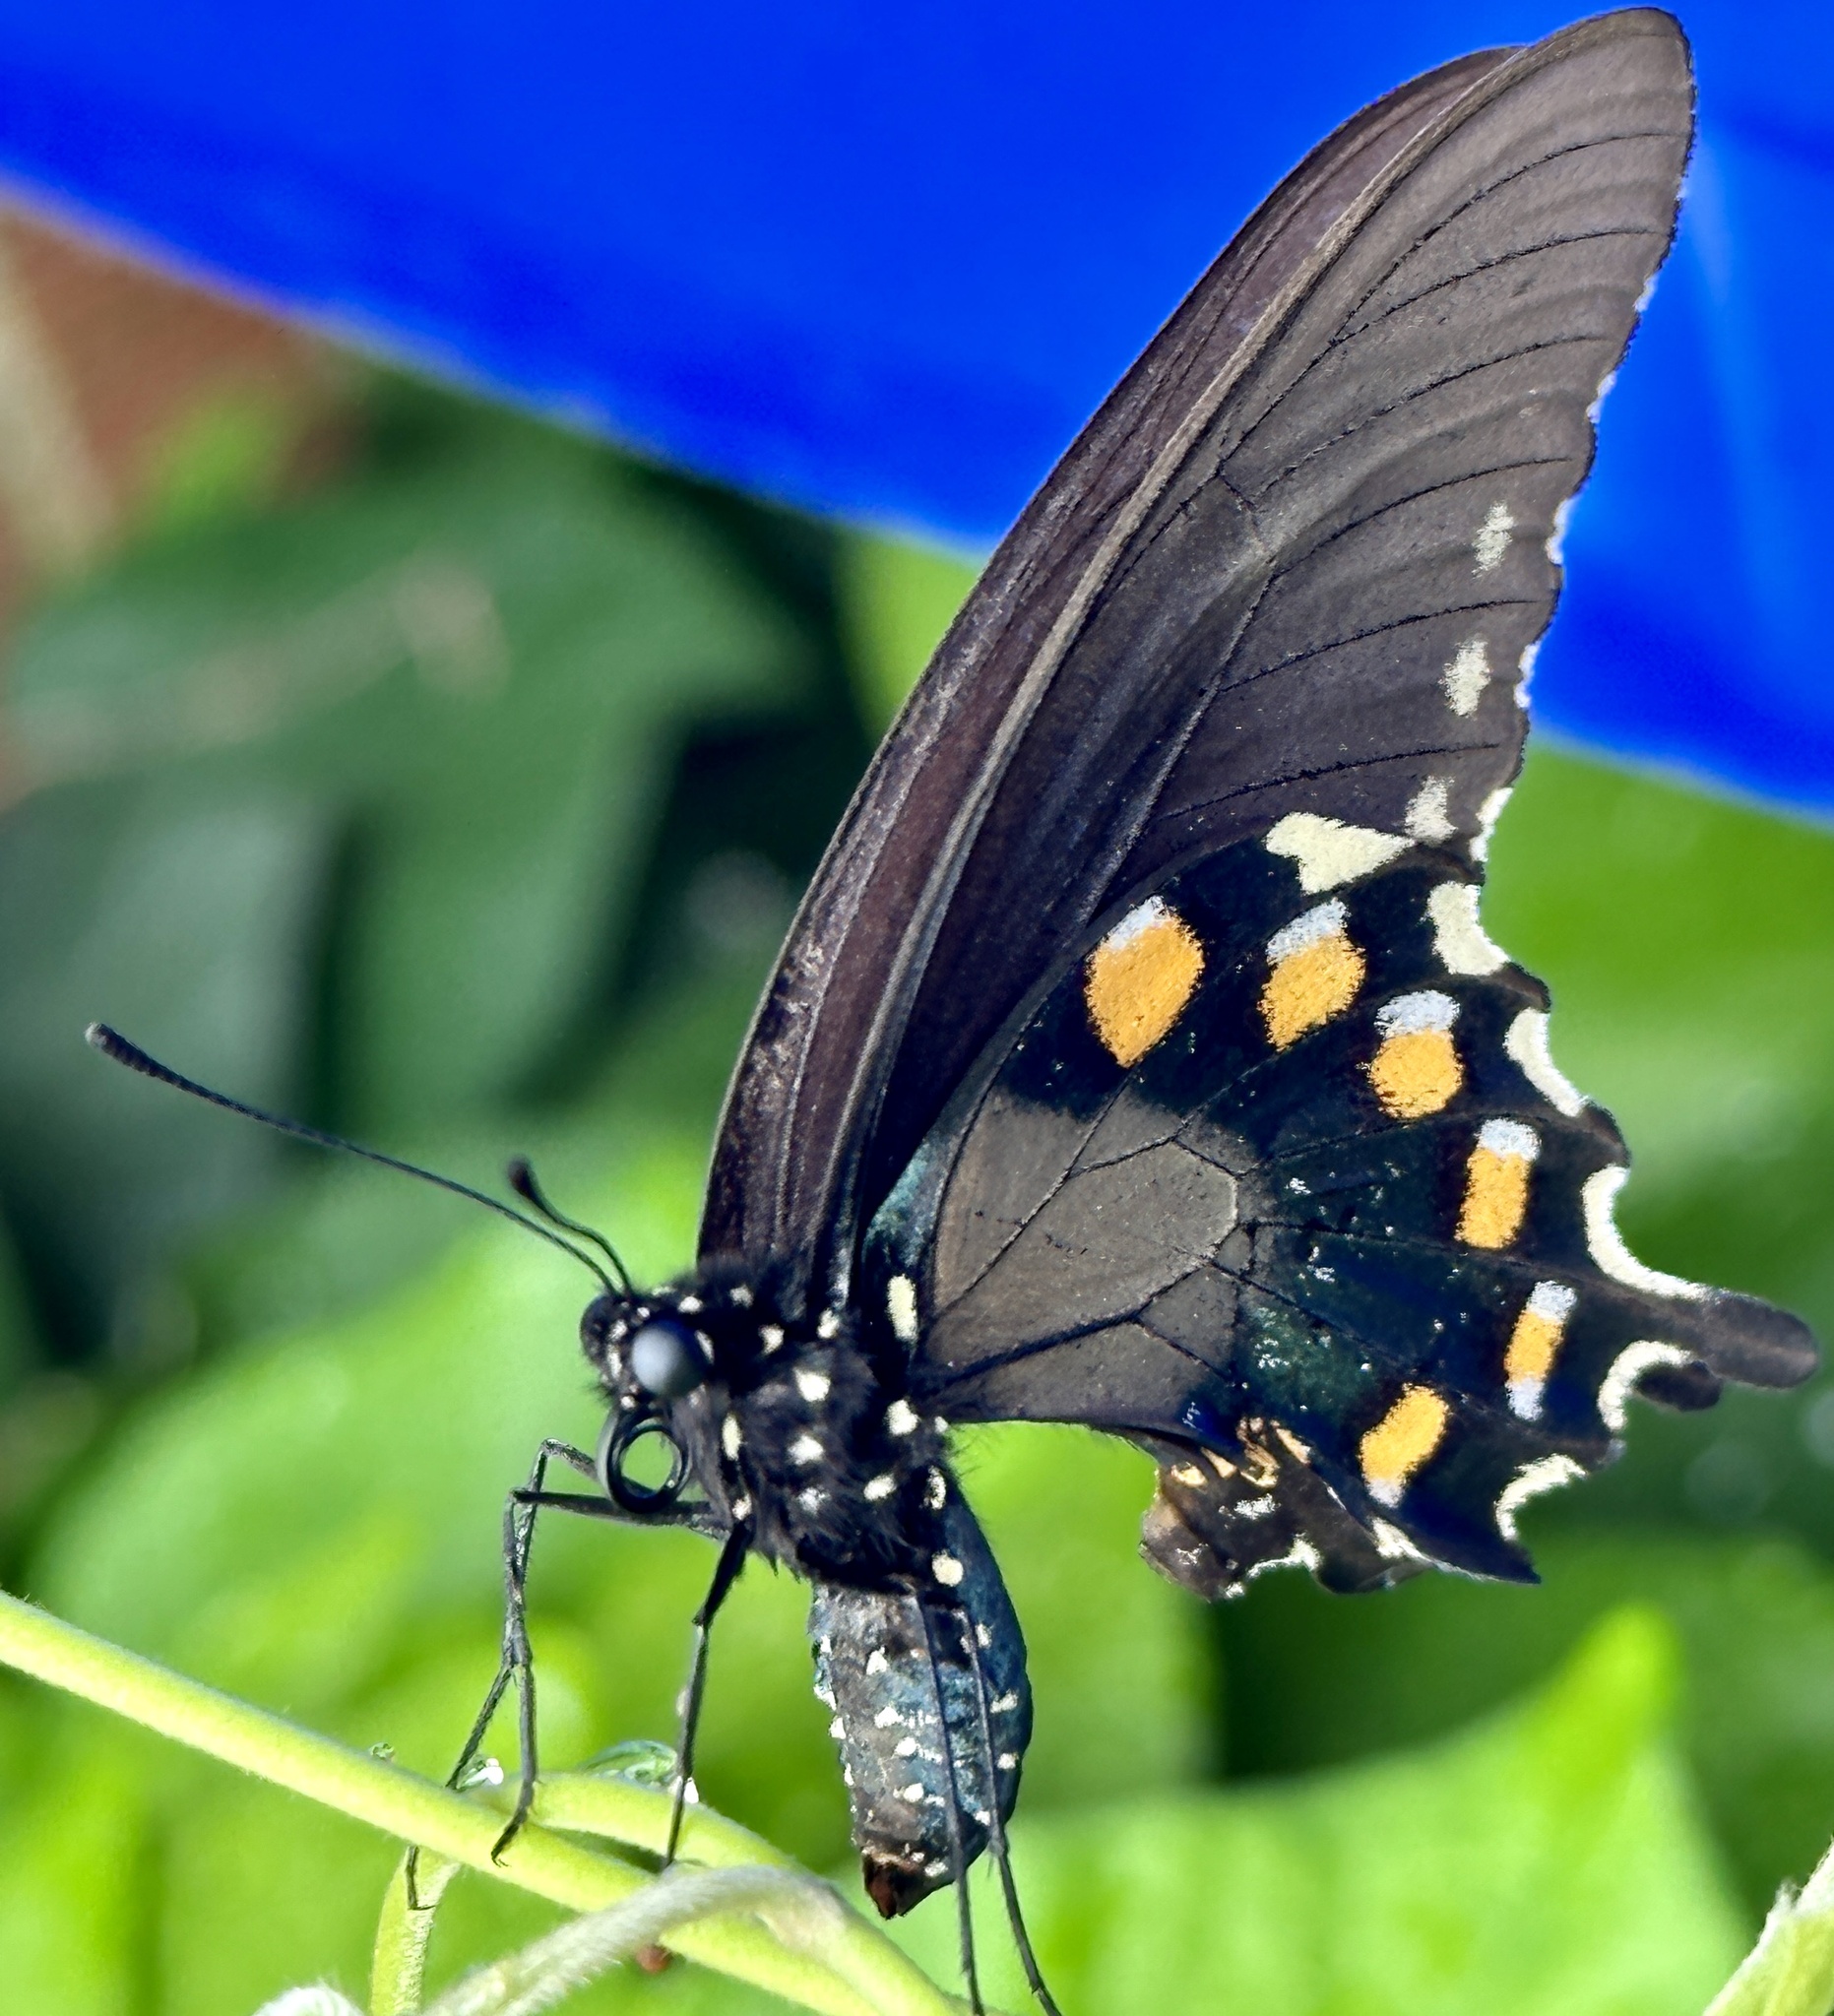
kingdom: Animalia
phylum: Arthropoda
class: Insecta
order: Lepidoptera
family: Papilionidae
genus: Battus
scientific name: Battus philenor
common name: Pipevine swallowtail
